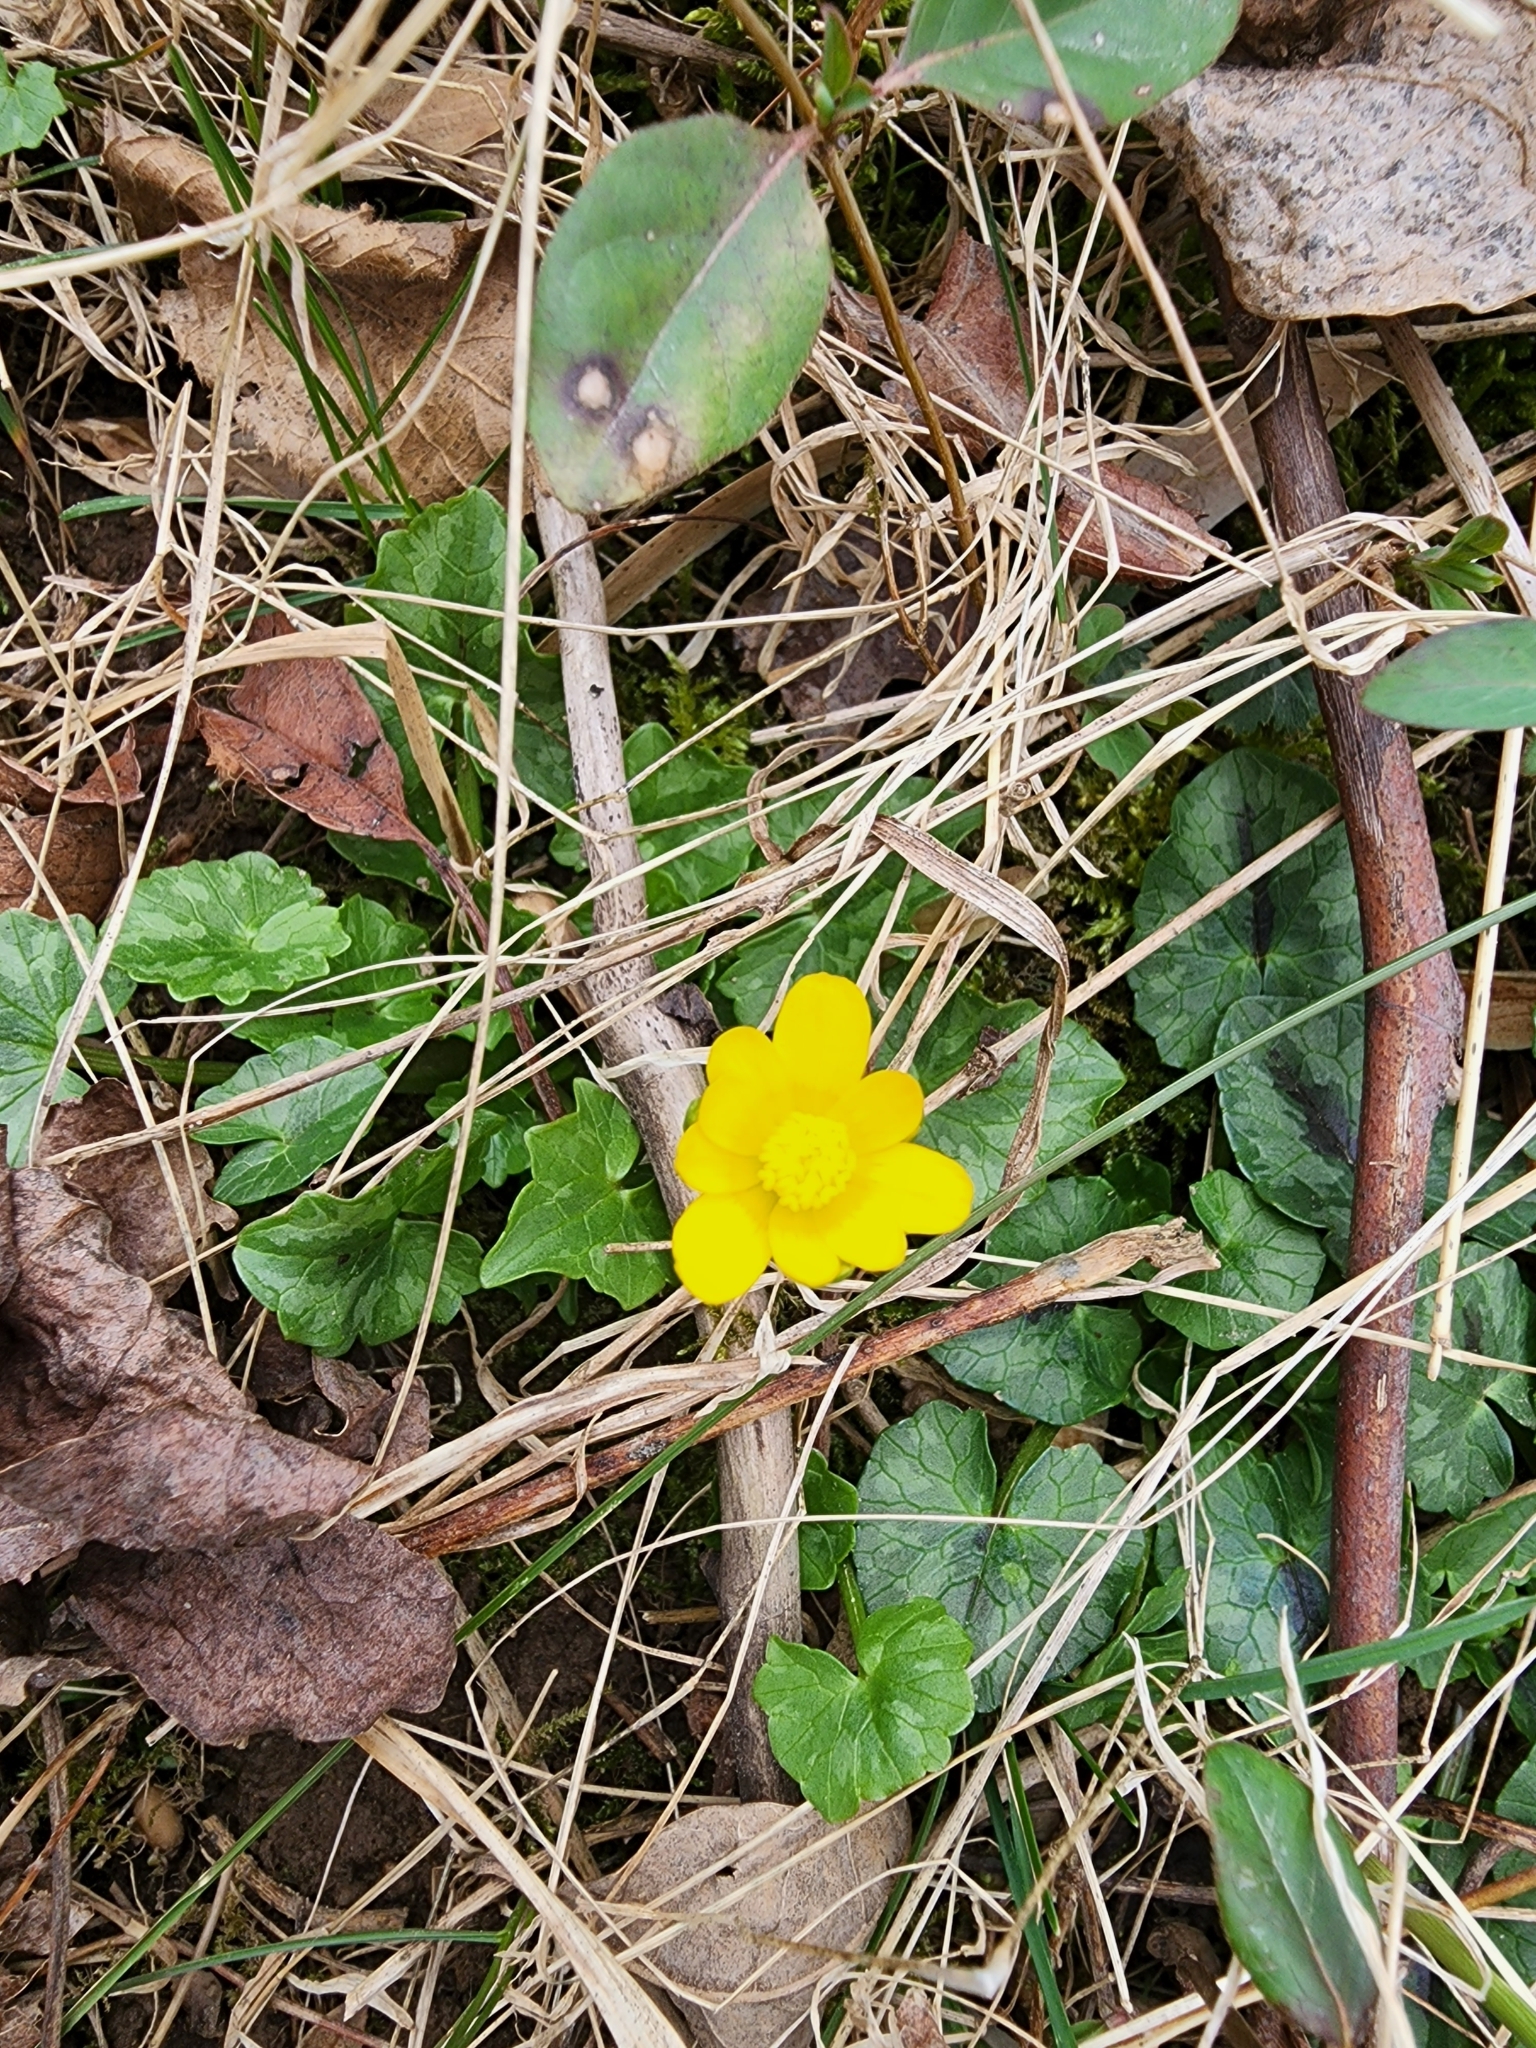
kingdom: Plantae
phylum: Tracheophyta
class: Magnoliopsida
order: Ranunculales
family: Ranunculaceae
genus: Ficaria
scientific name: Ficaria verna
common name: Lesser celandine
